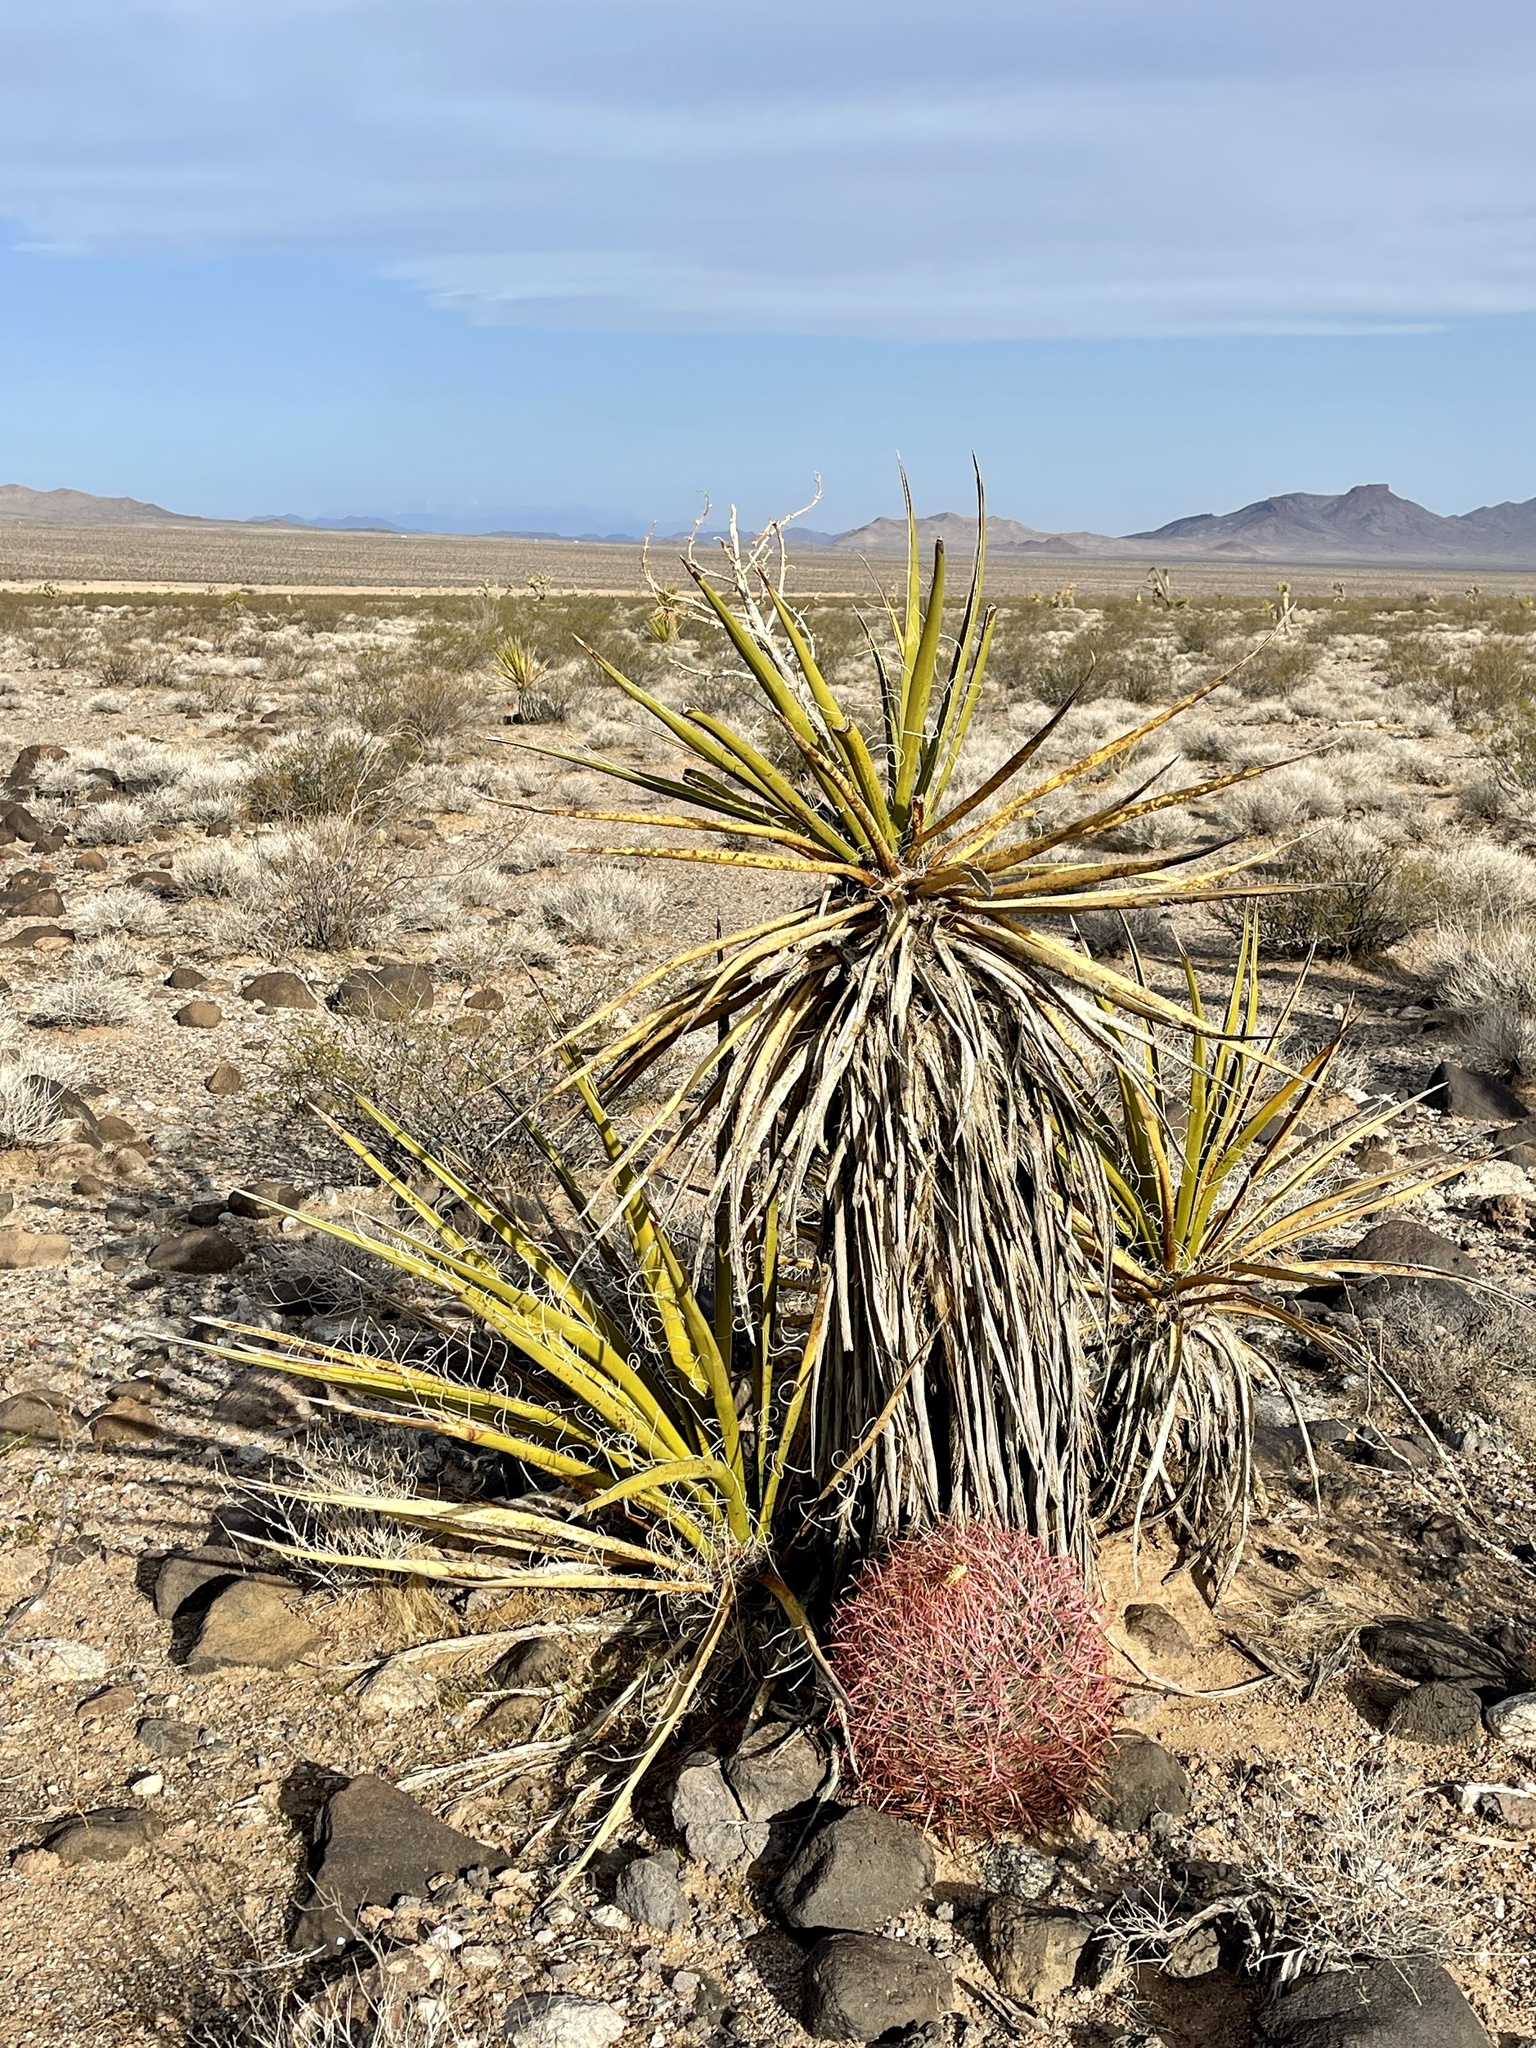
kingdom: Plantae
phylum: Tracheophyta
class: Liliopsida
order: Asparagales
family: Asparagaceae
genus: Yucca
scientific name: Yucca schidigera
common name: Mojave yucca
